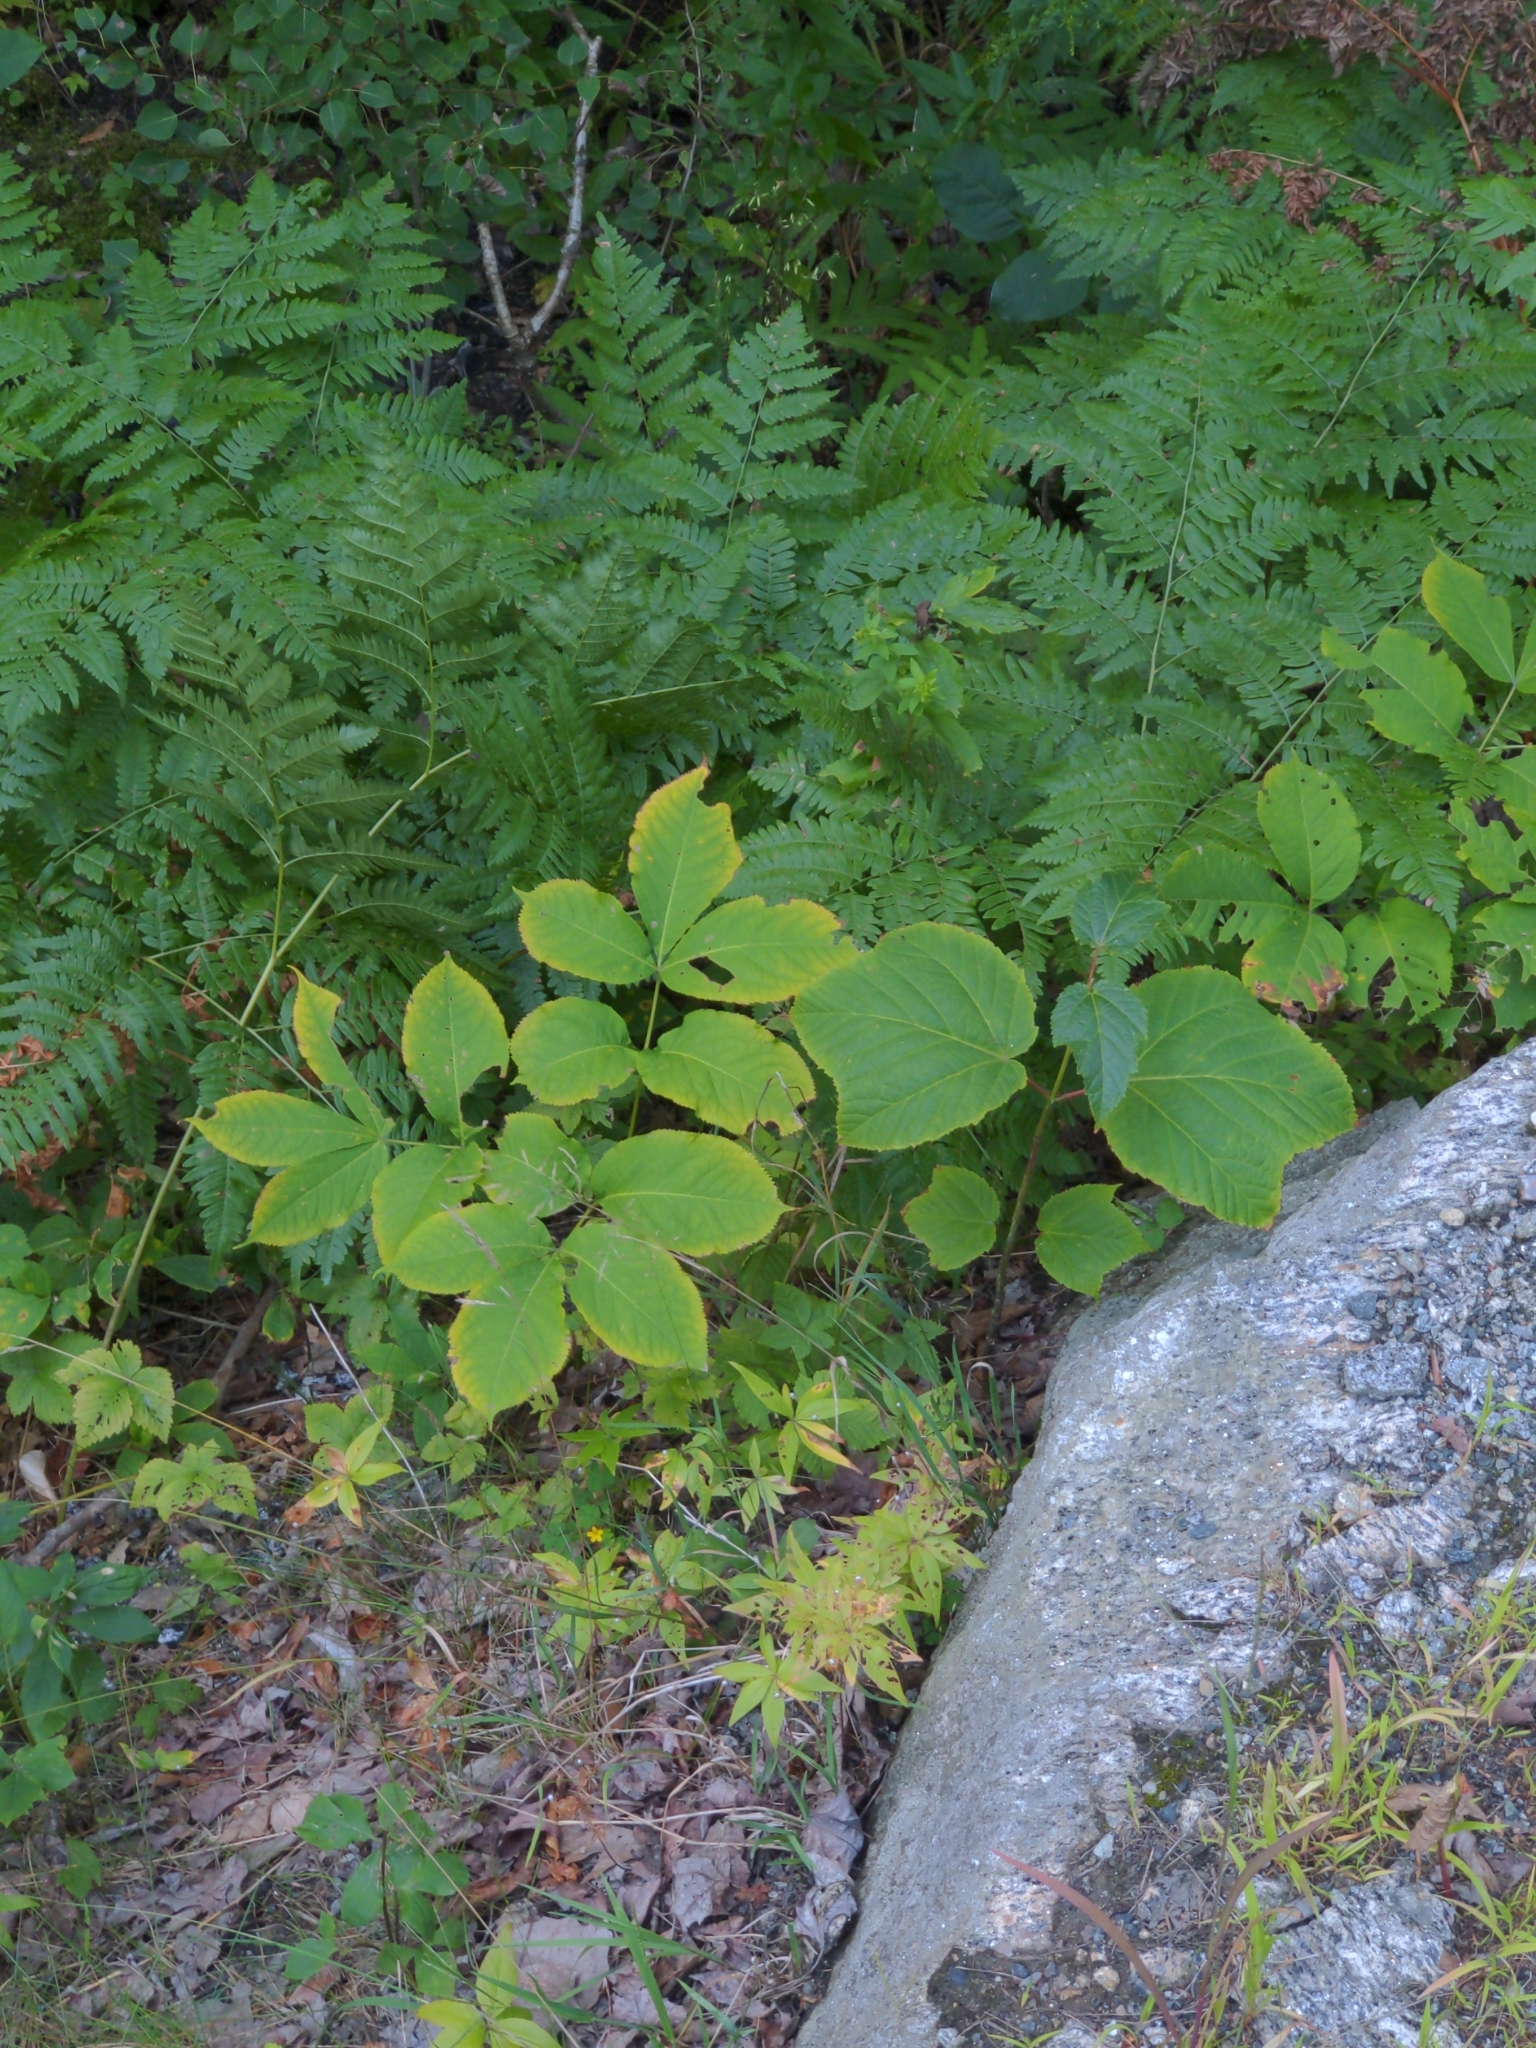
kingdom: Plantae
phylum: Tracheophyta
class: Magnoliopsida
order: Sapindales
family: Sapindaceae
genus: Acer
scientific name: Acer pensylvanicum
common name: Moosewood
